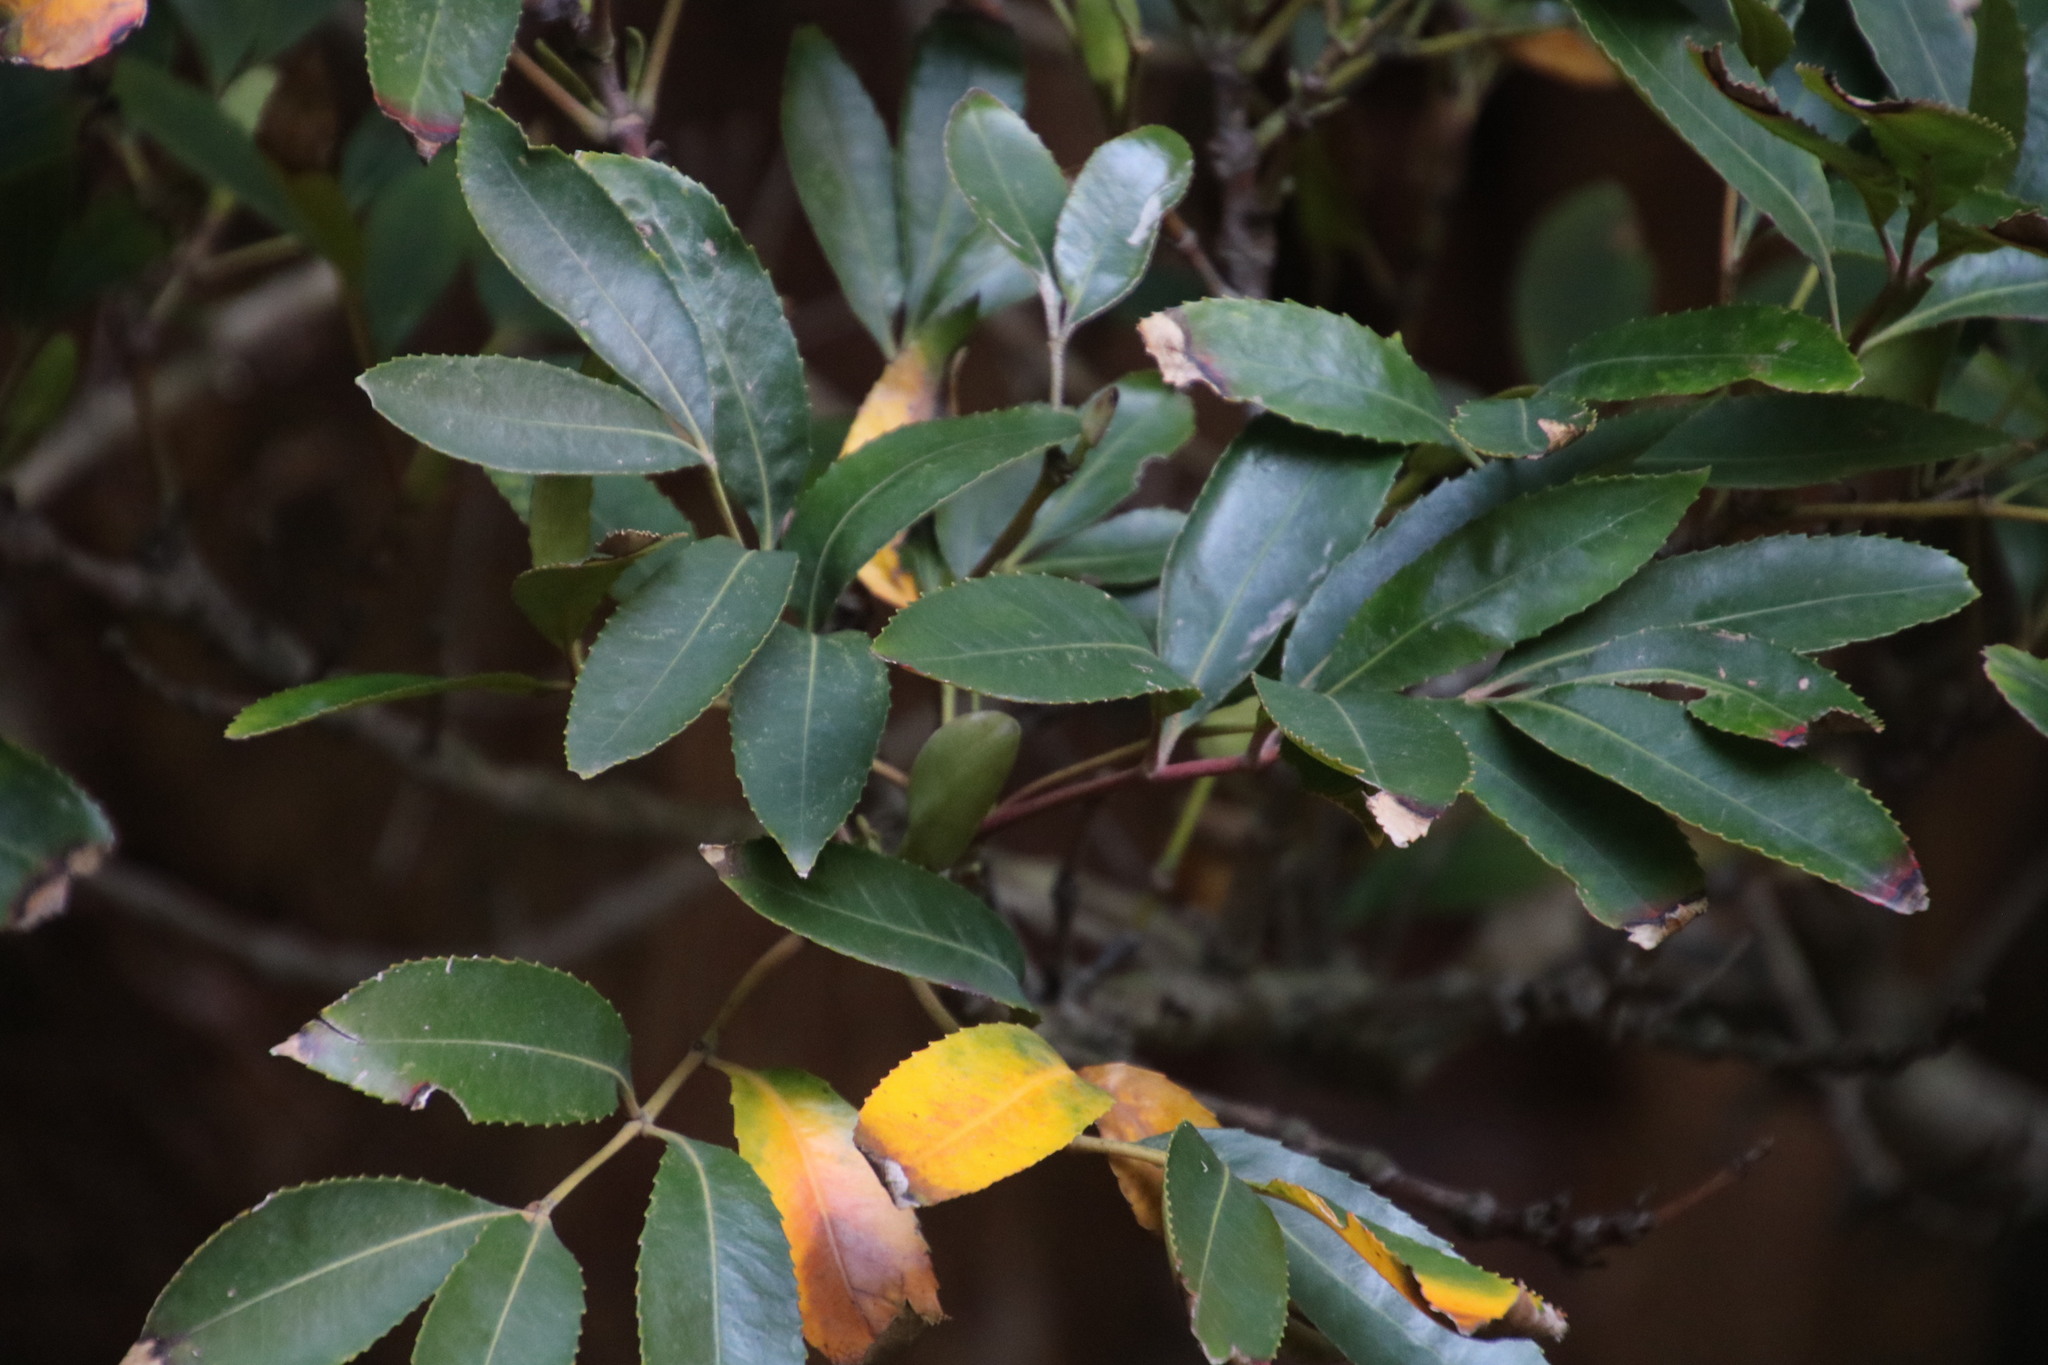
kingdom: Plantae
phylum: Tracheophyta
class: Magnoliopsida
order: Oxalidales
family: Cunoniaceae
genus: Cunonia
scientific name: Cunonia capensis
